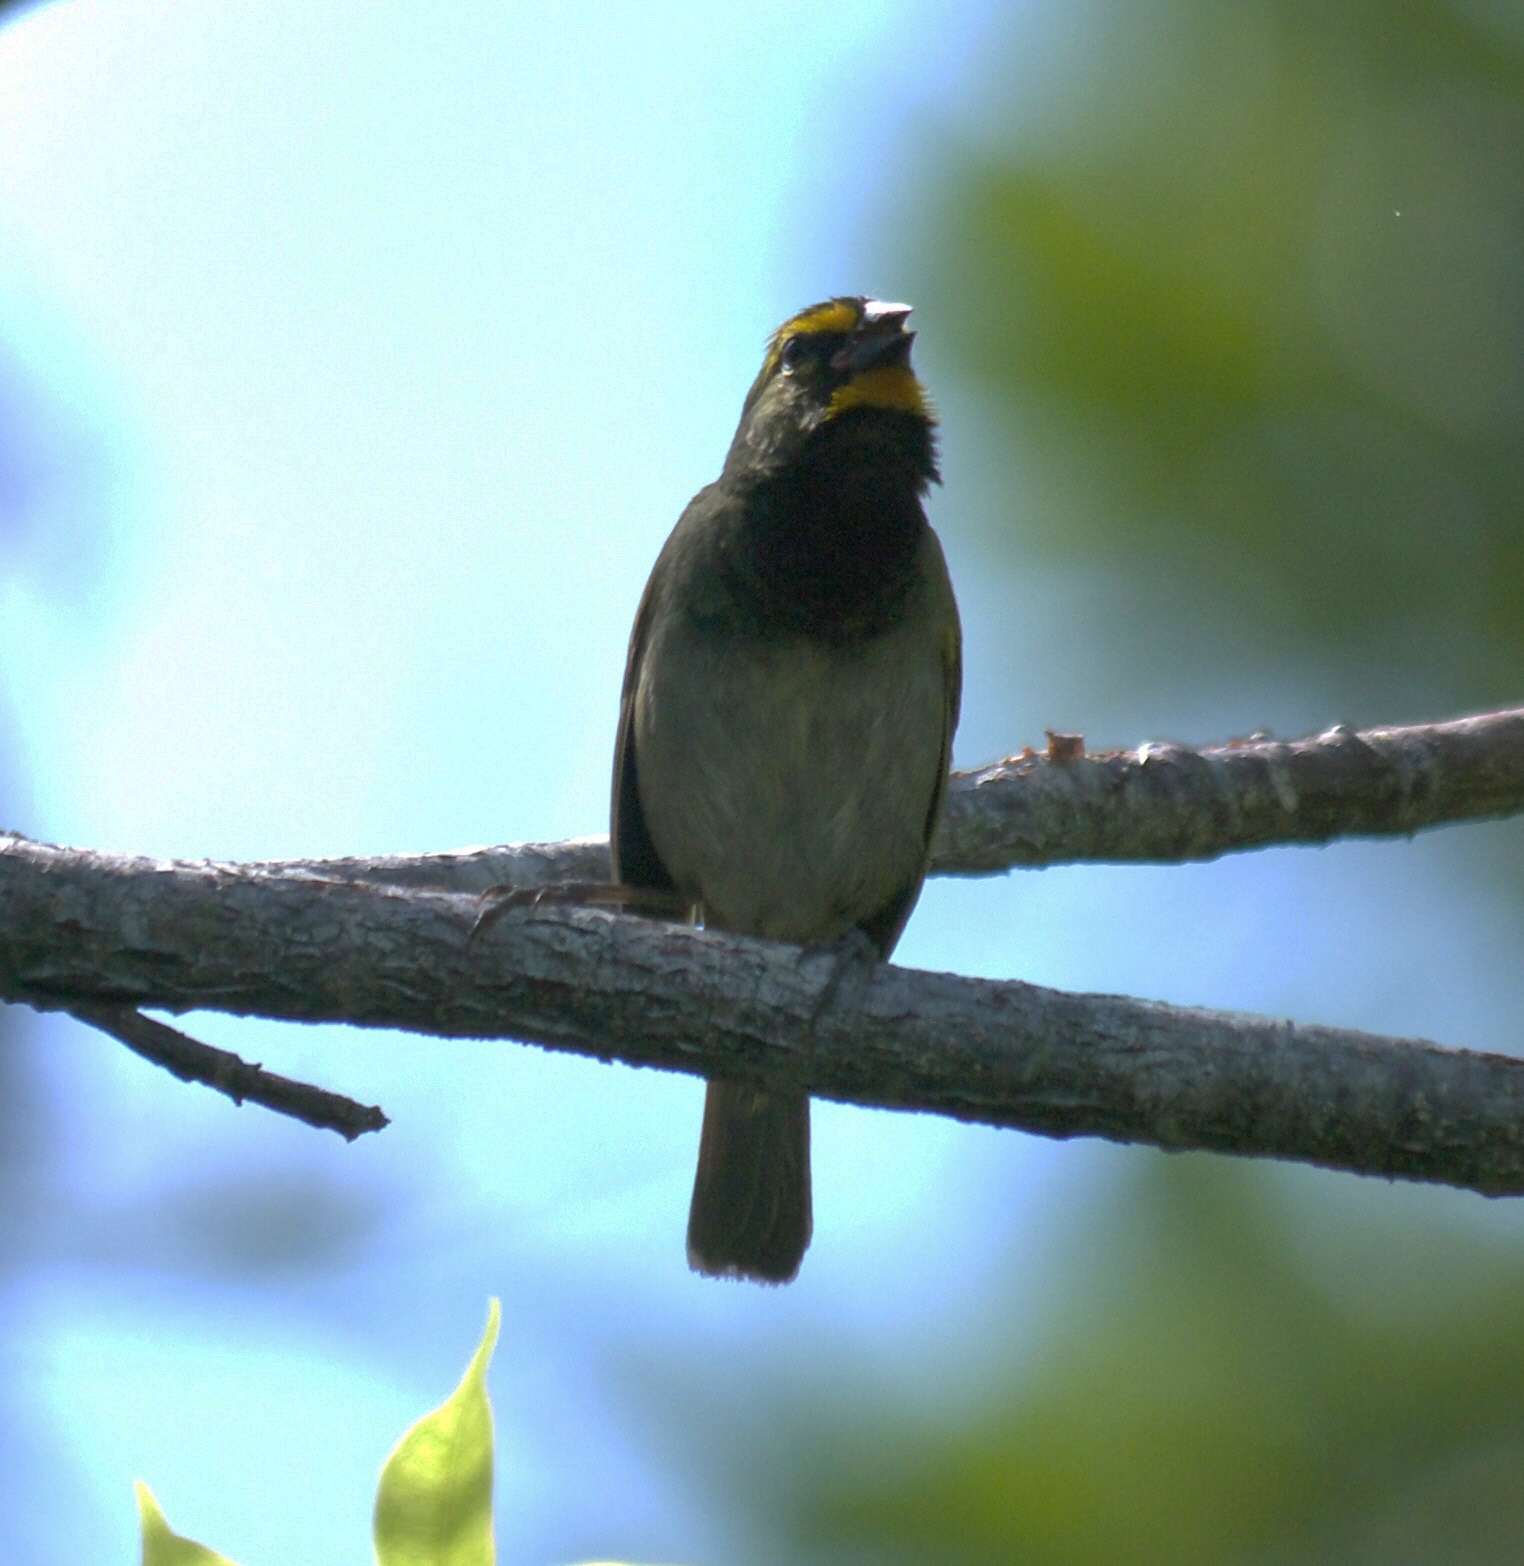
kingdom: Animalia
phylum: Chordata
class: Aves
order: Passeriformes
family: Thraupidae
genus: Tiaris
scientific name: Tiaris olivaceus
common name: Yellow-faced grassquit
